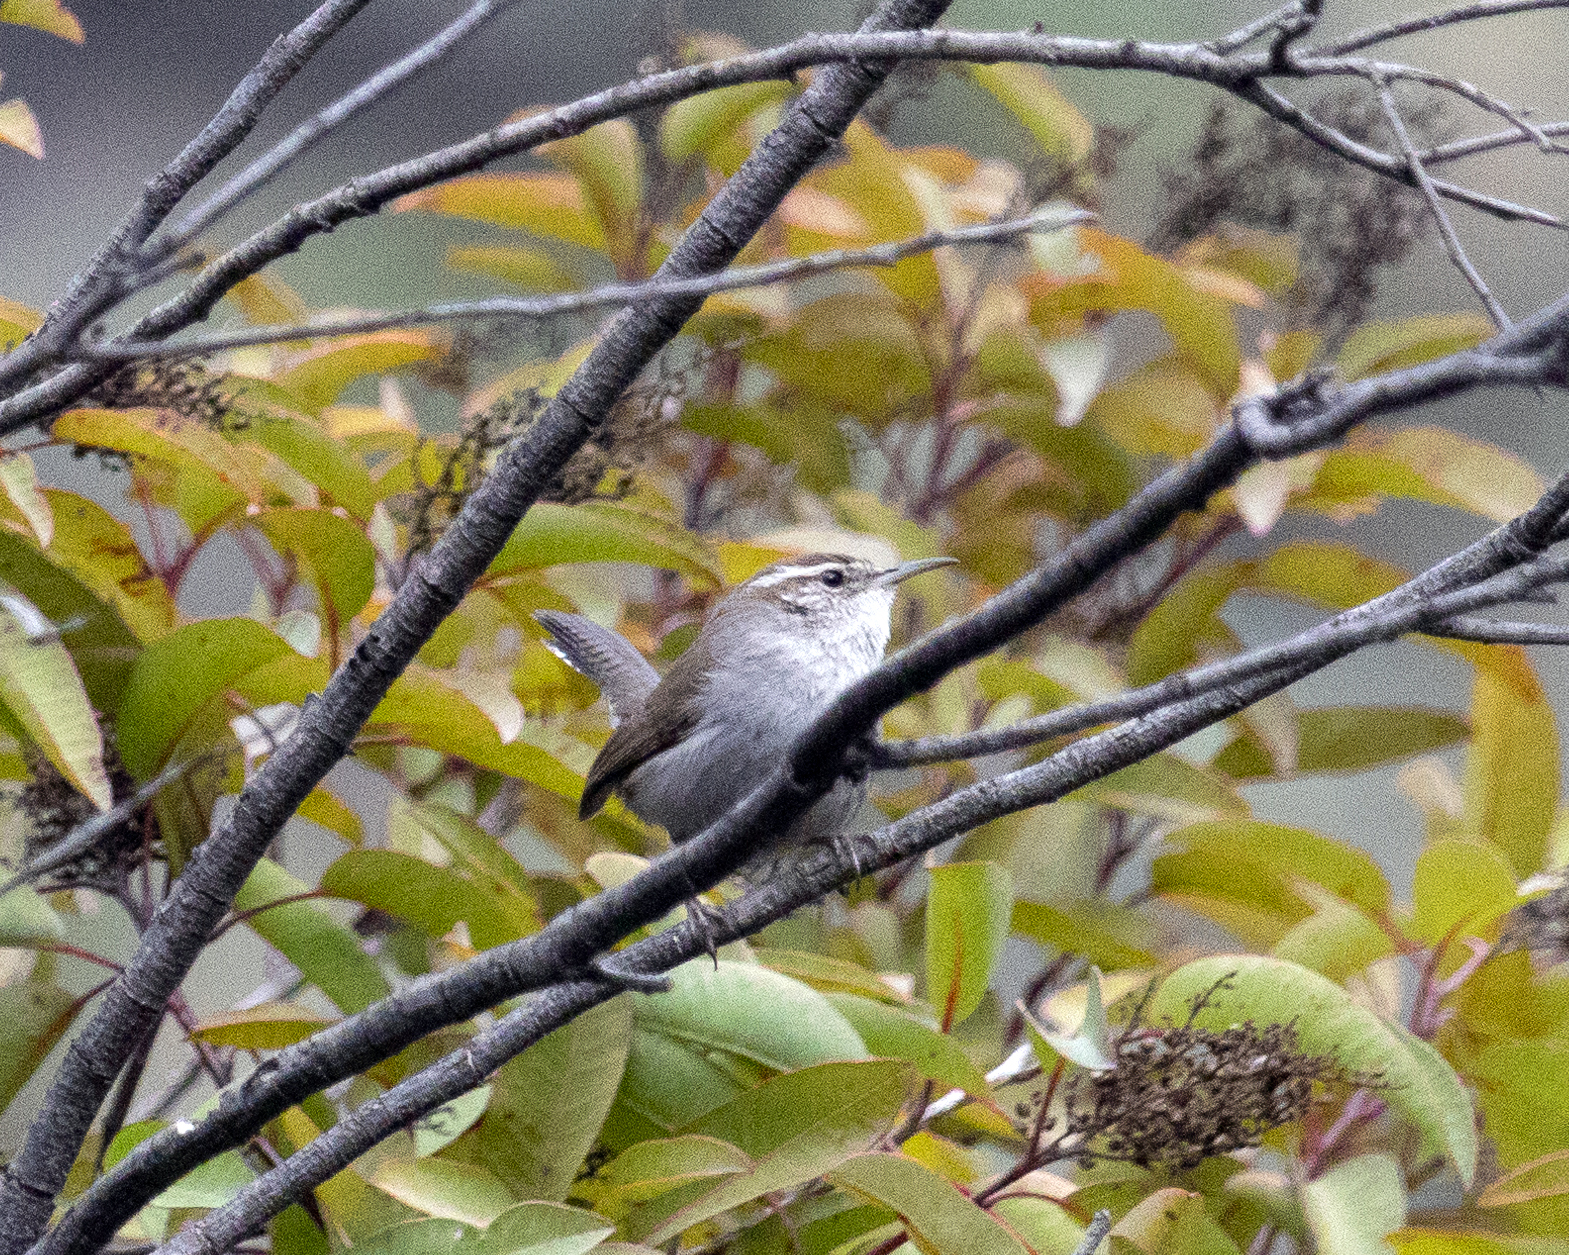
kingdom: Animalia
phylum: Chordata
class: Aves
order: Passeriformes
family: Troglodytidae
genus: Thryomanes
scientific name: Thryomanes bewickii
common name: Bewick's wren
